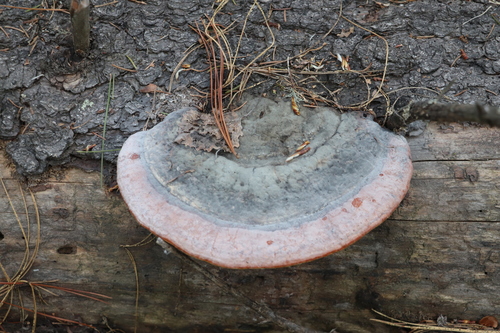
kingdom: Fungi
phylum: Basidiomycota
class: Agaricomycetes
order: Polyporales
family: Fomitopsidaceae
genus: Fomitopsis
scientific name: Fomitopsis pinicola
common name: Red-belted bracket
